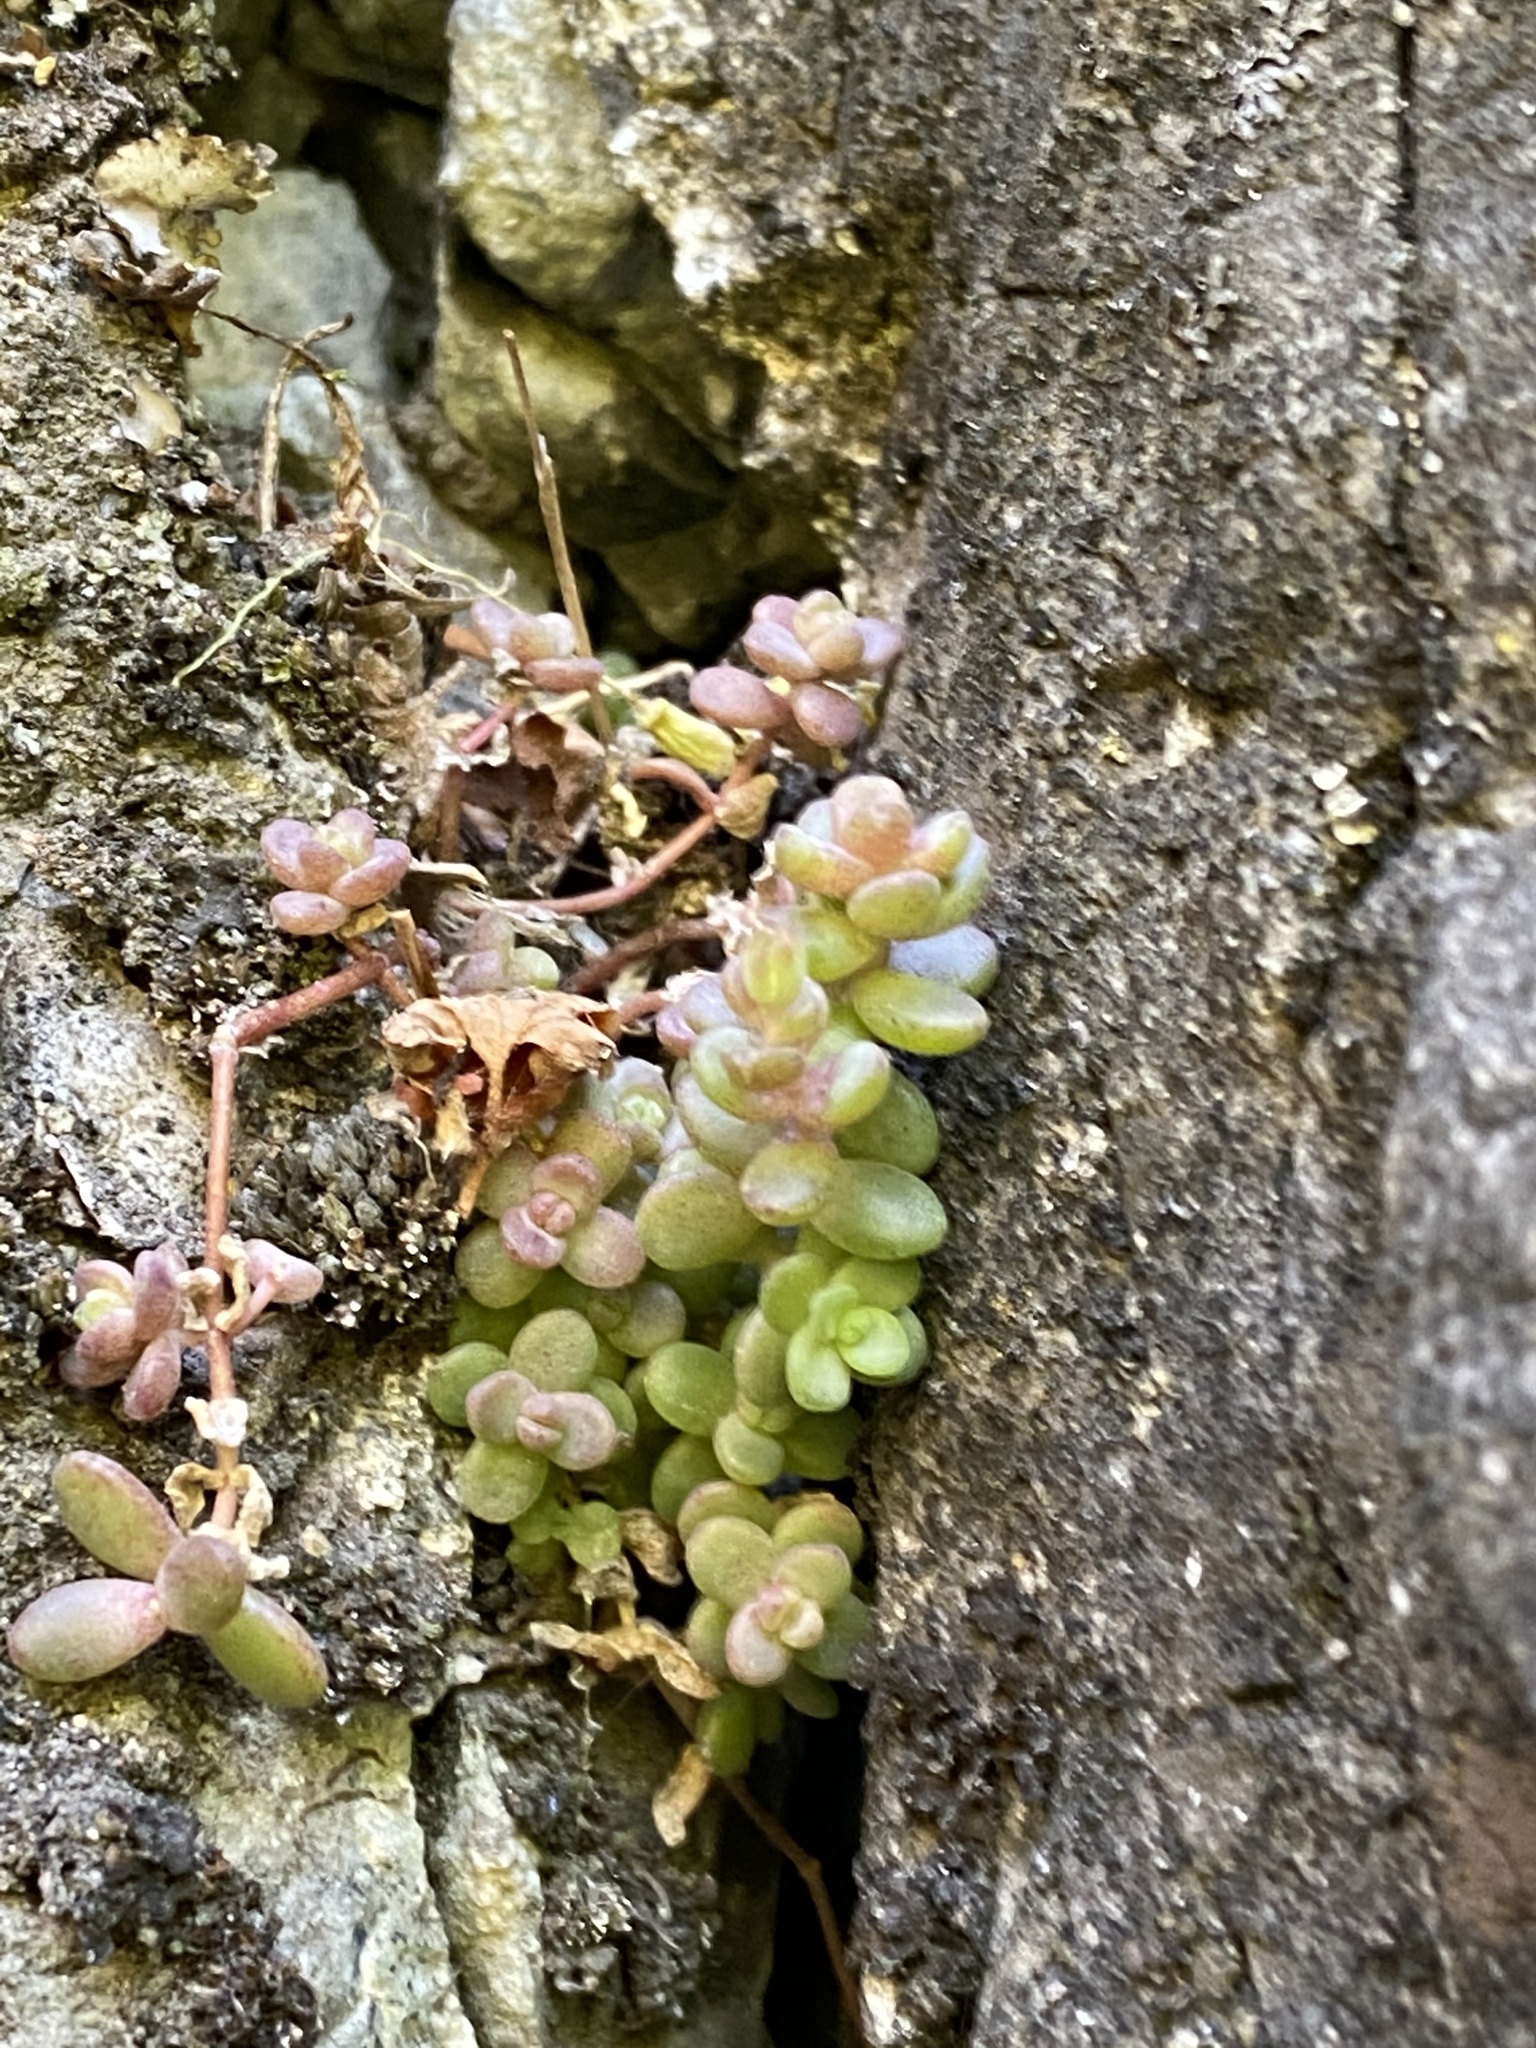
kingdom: Plantae
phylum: Tracheophyta
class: Magnoliopsida
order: Saxifragales
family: Crassulaceae
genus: Sedum
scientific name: Sedum debile
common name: Weak-stem stonecrop
